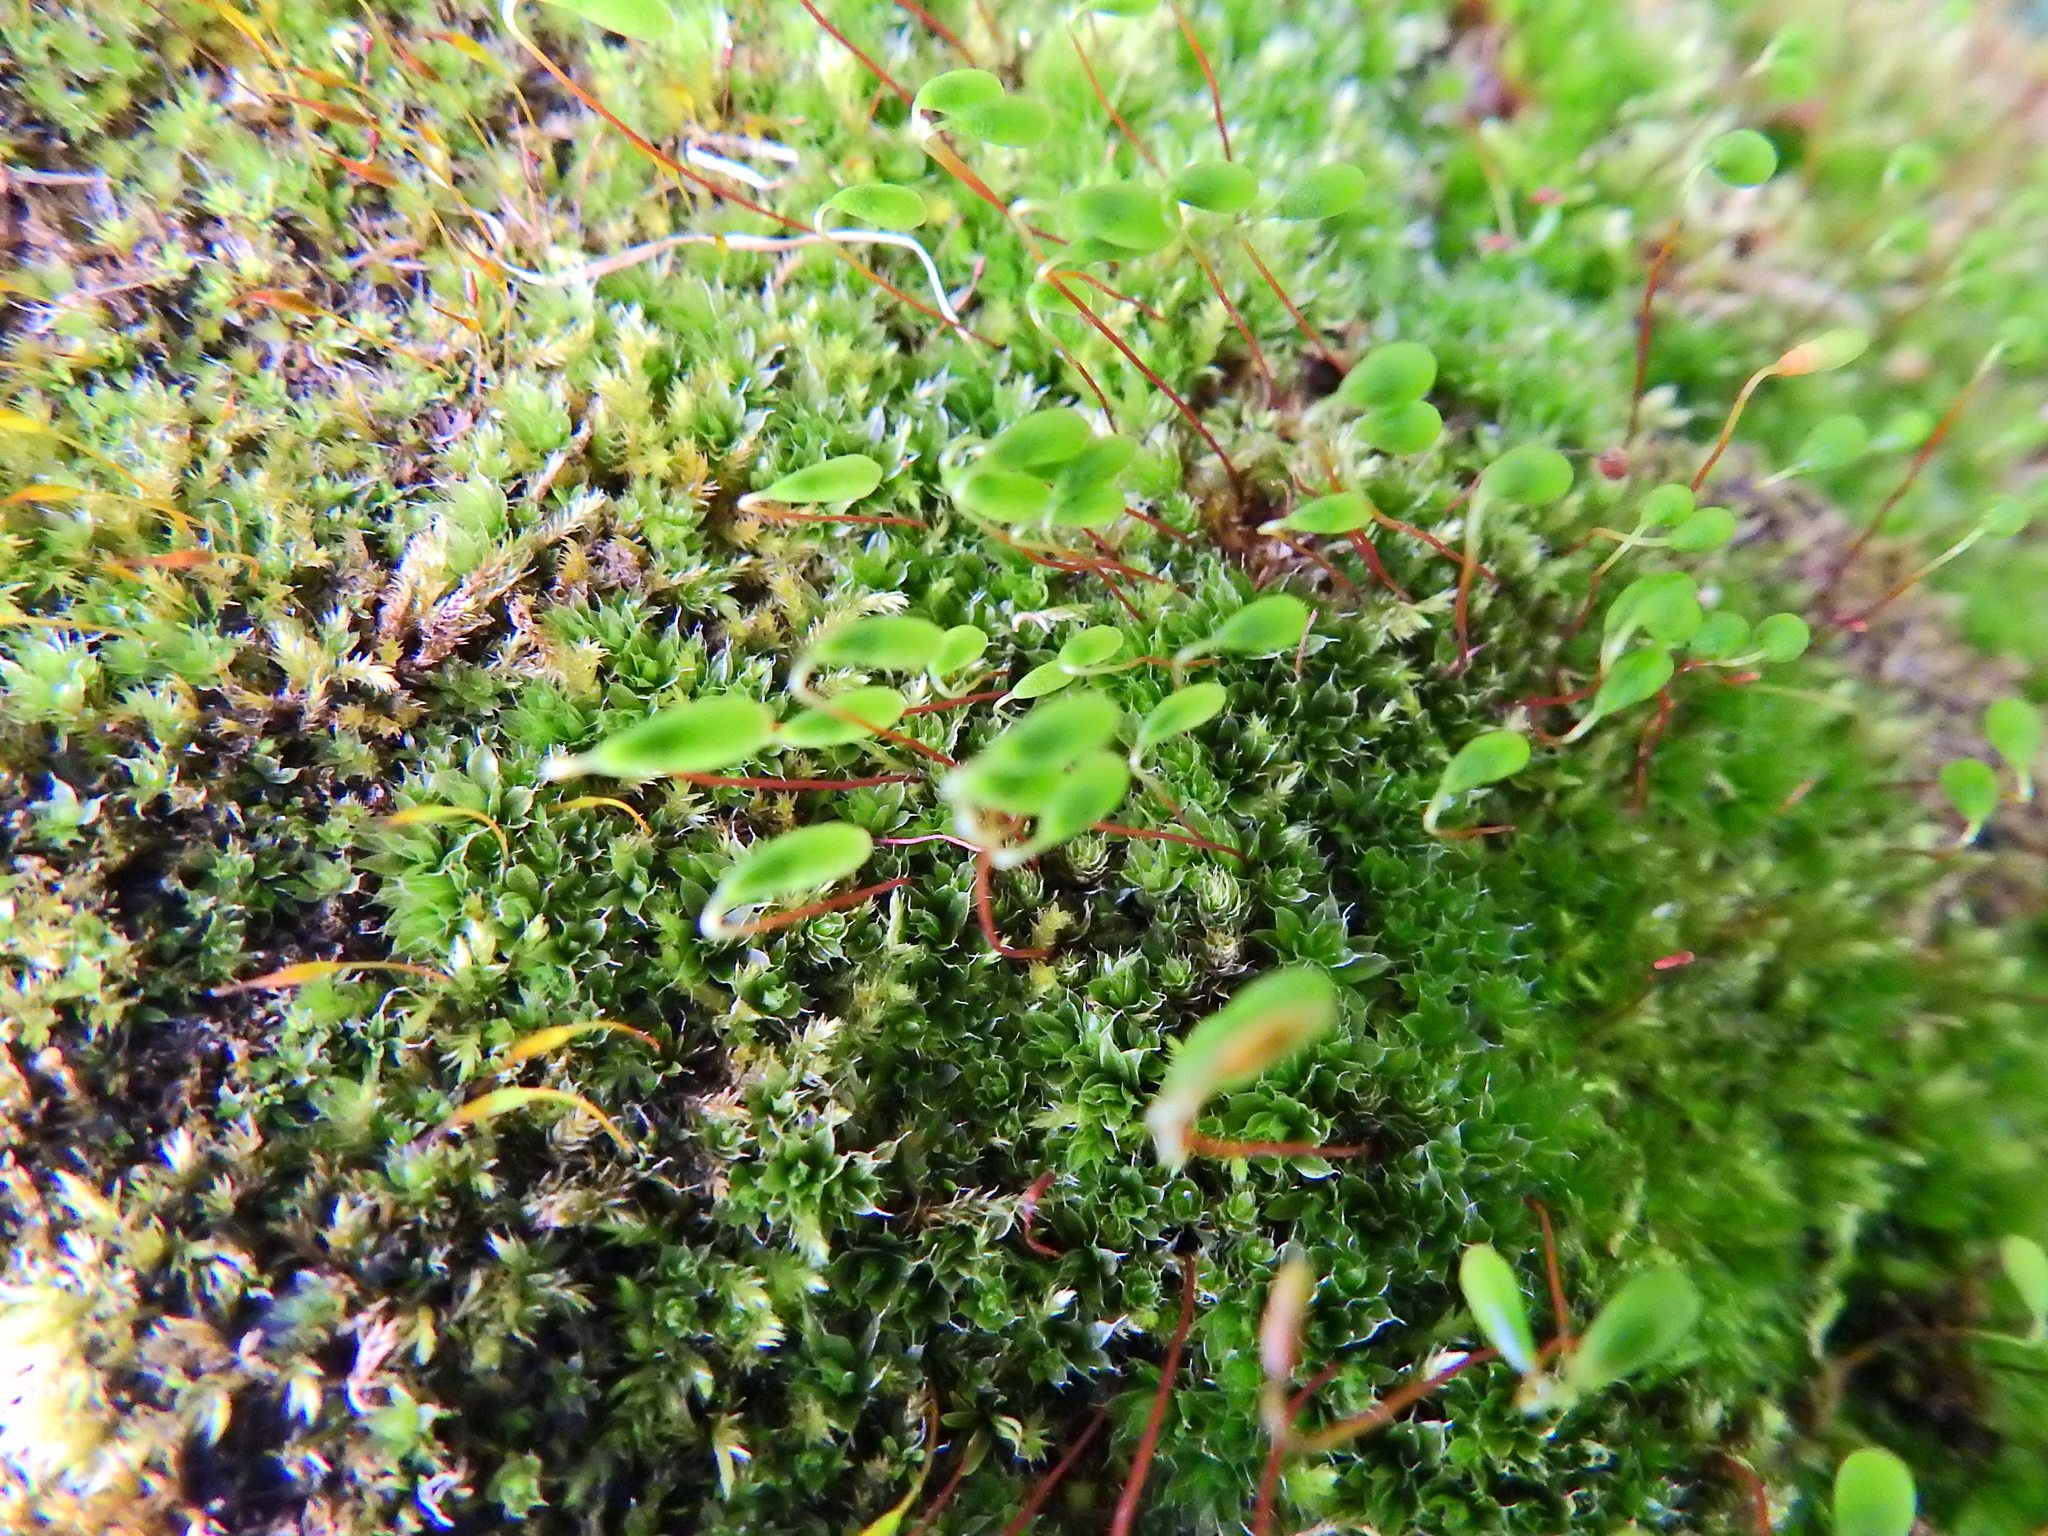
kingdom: Plantae
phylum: Bryophyta
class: Bryopsida
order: Bryales
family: Bryaceae
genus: Rosulabryum
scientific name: Rosulabryum capillare
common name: Capillary thread-moss
